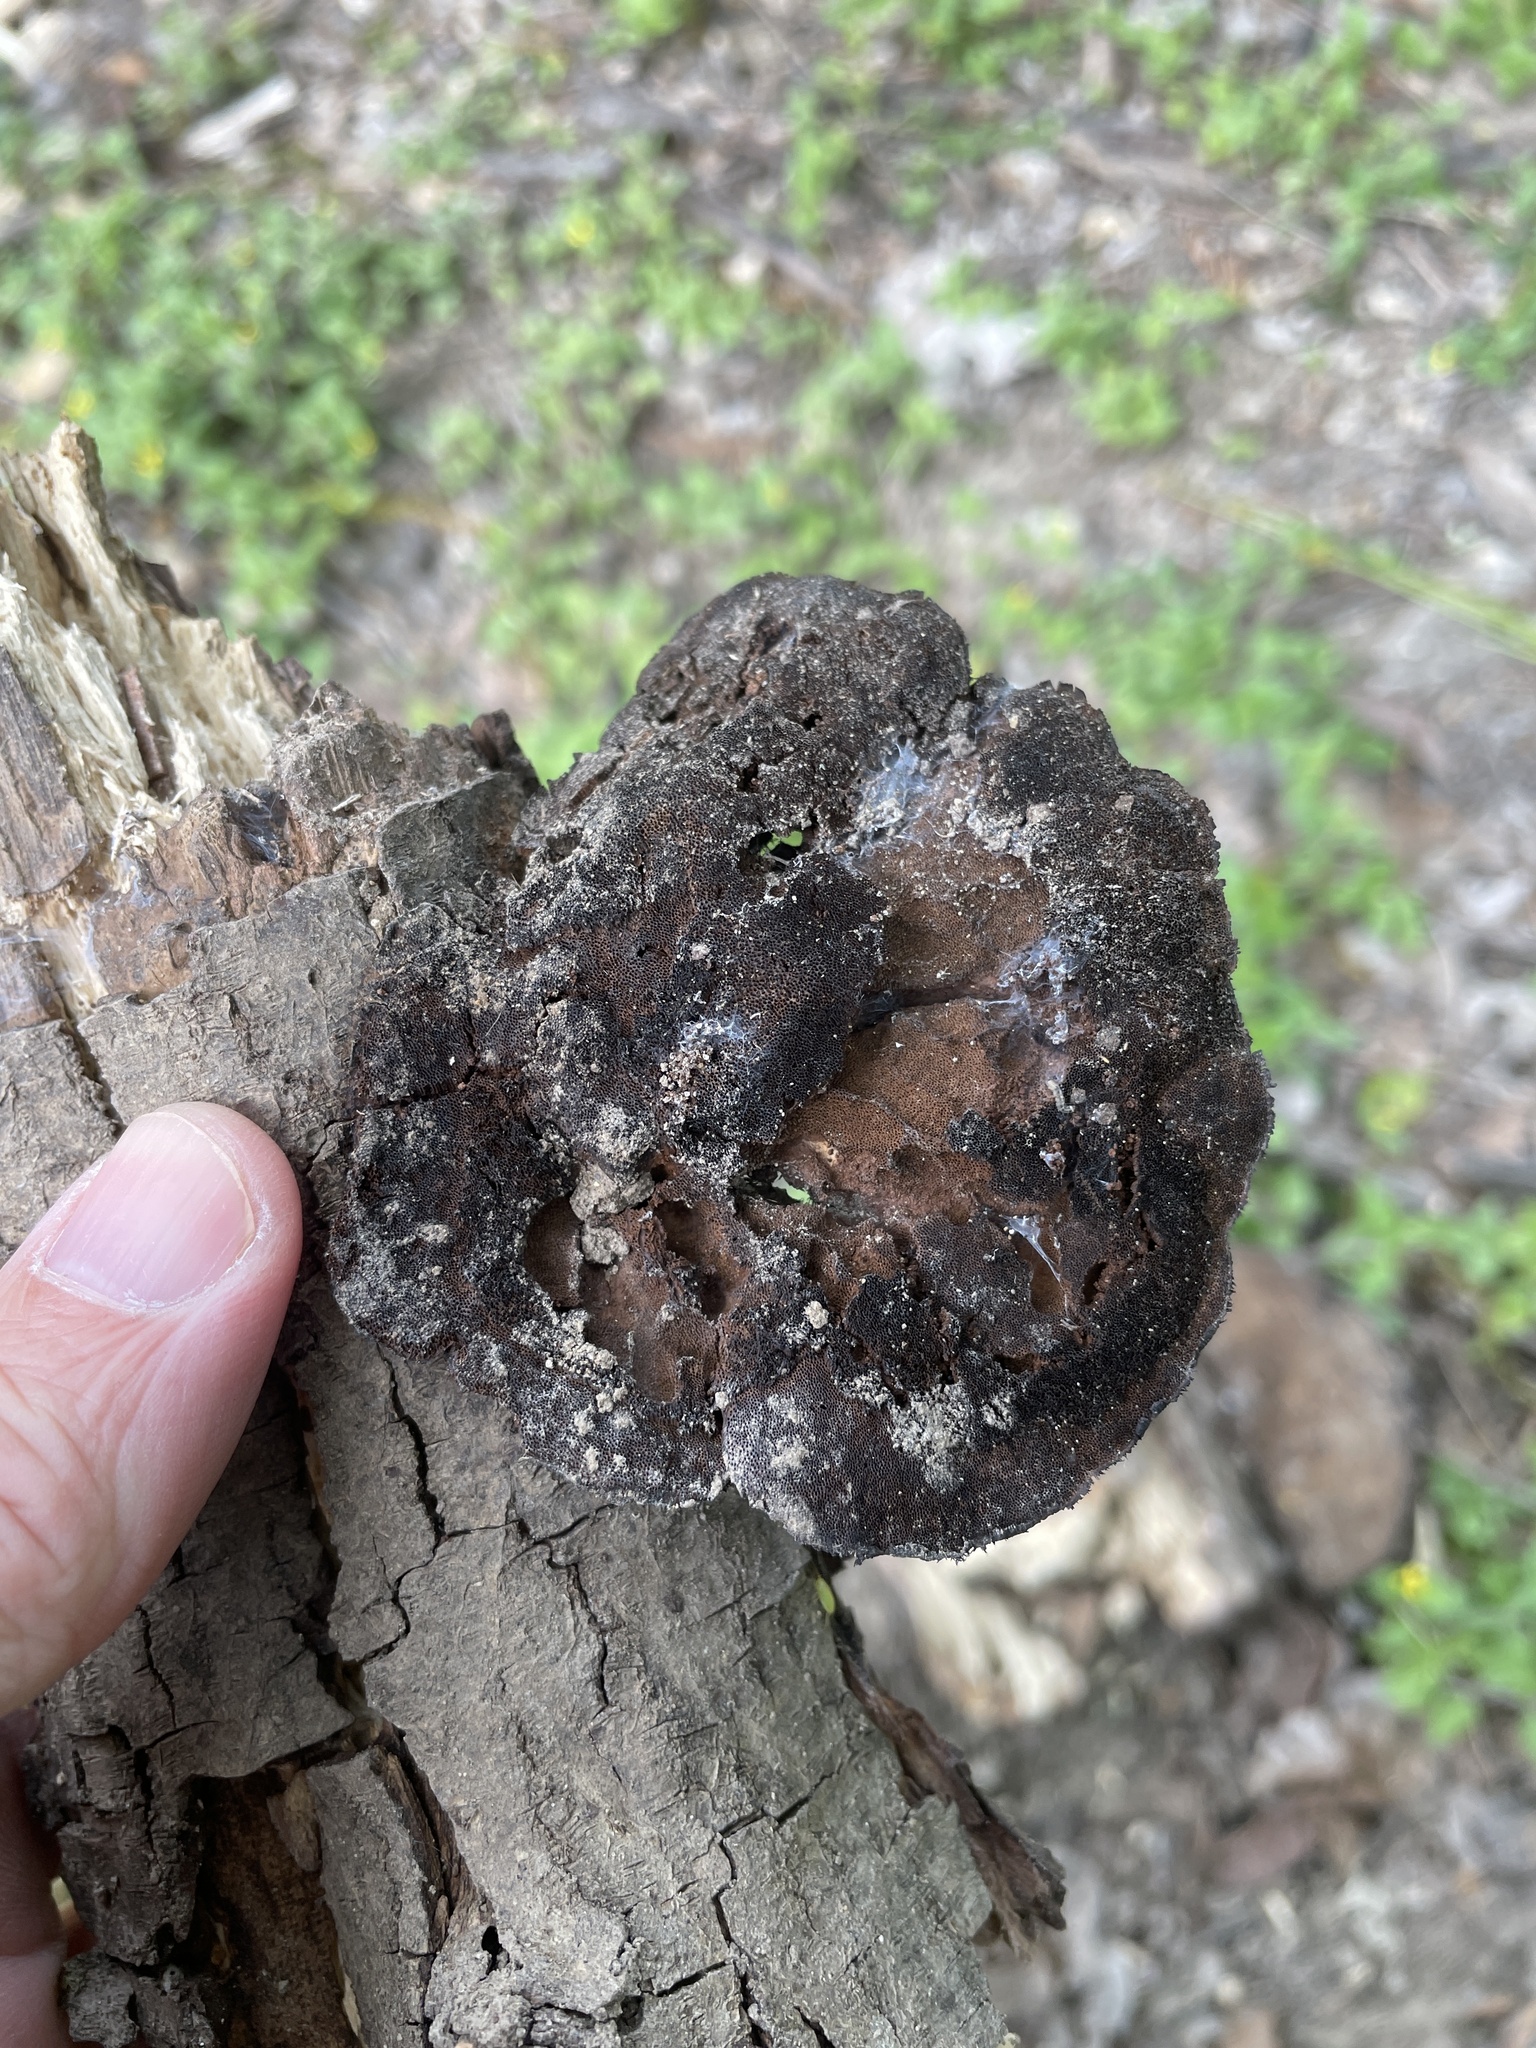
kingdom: Fungi
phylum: Basidiomycota
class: Agaricomycetes
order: Polyporales
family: Cerrenaceae
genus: Cerrena
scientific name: Cerrena hydnoides
